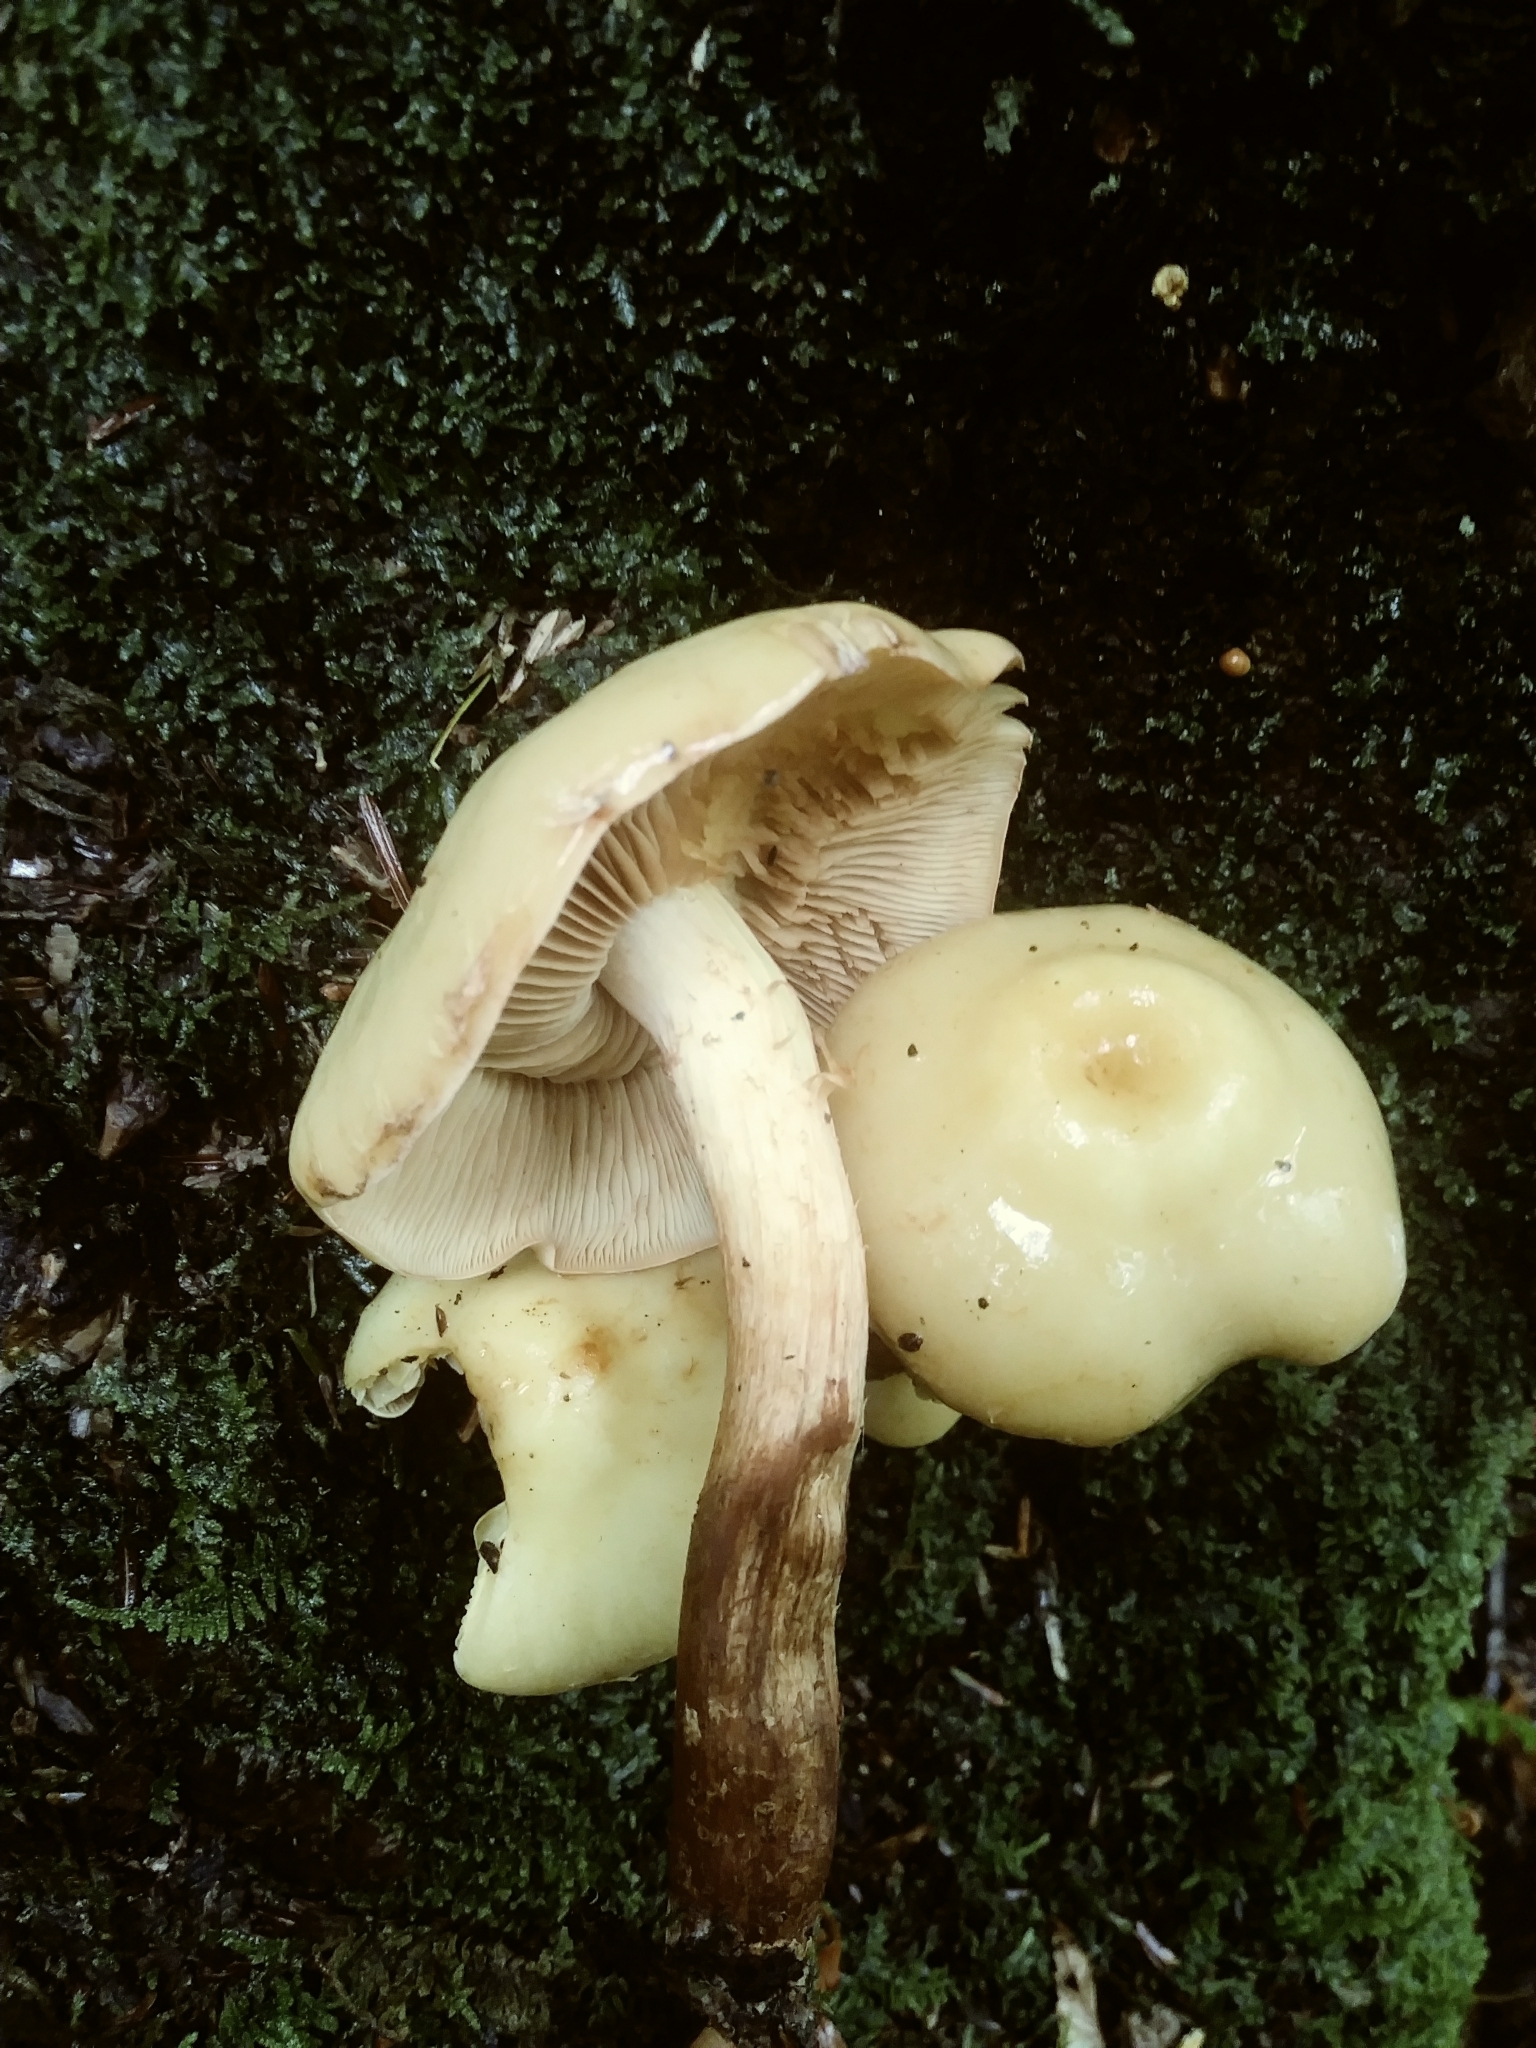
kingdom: Fungi
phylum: Basidiomycota
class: Agaricomycetes
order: Agaricales
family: Hymenogastraceae
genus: Flammula
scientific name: Flammula alnicola
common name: Alder scalycap
